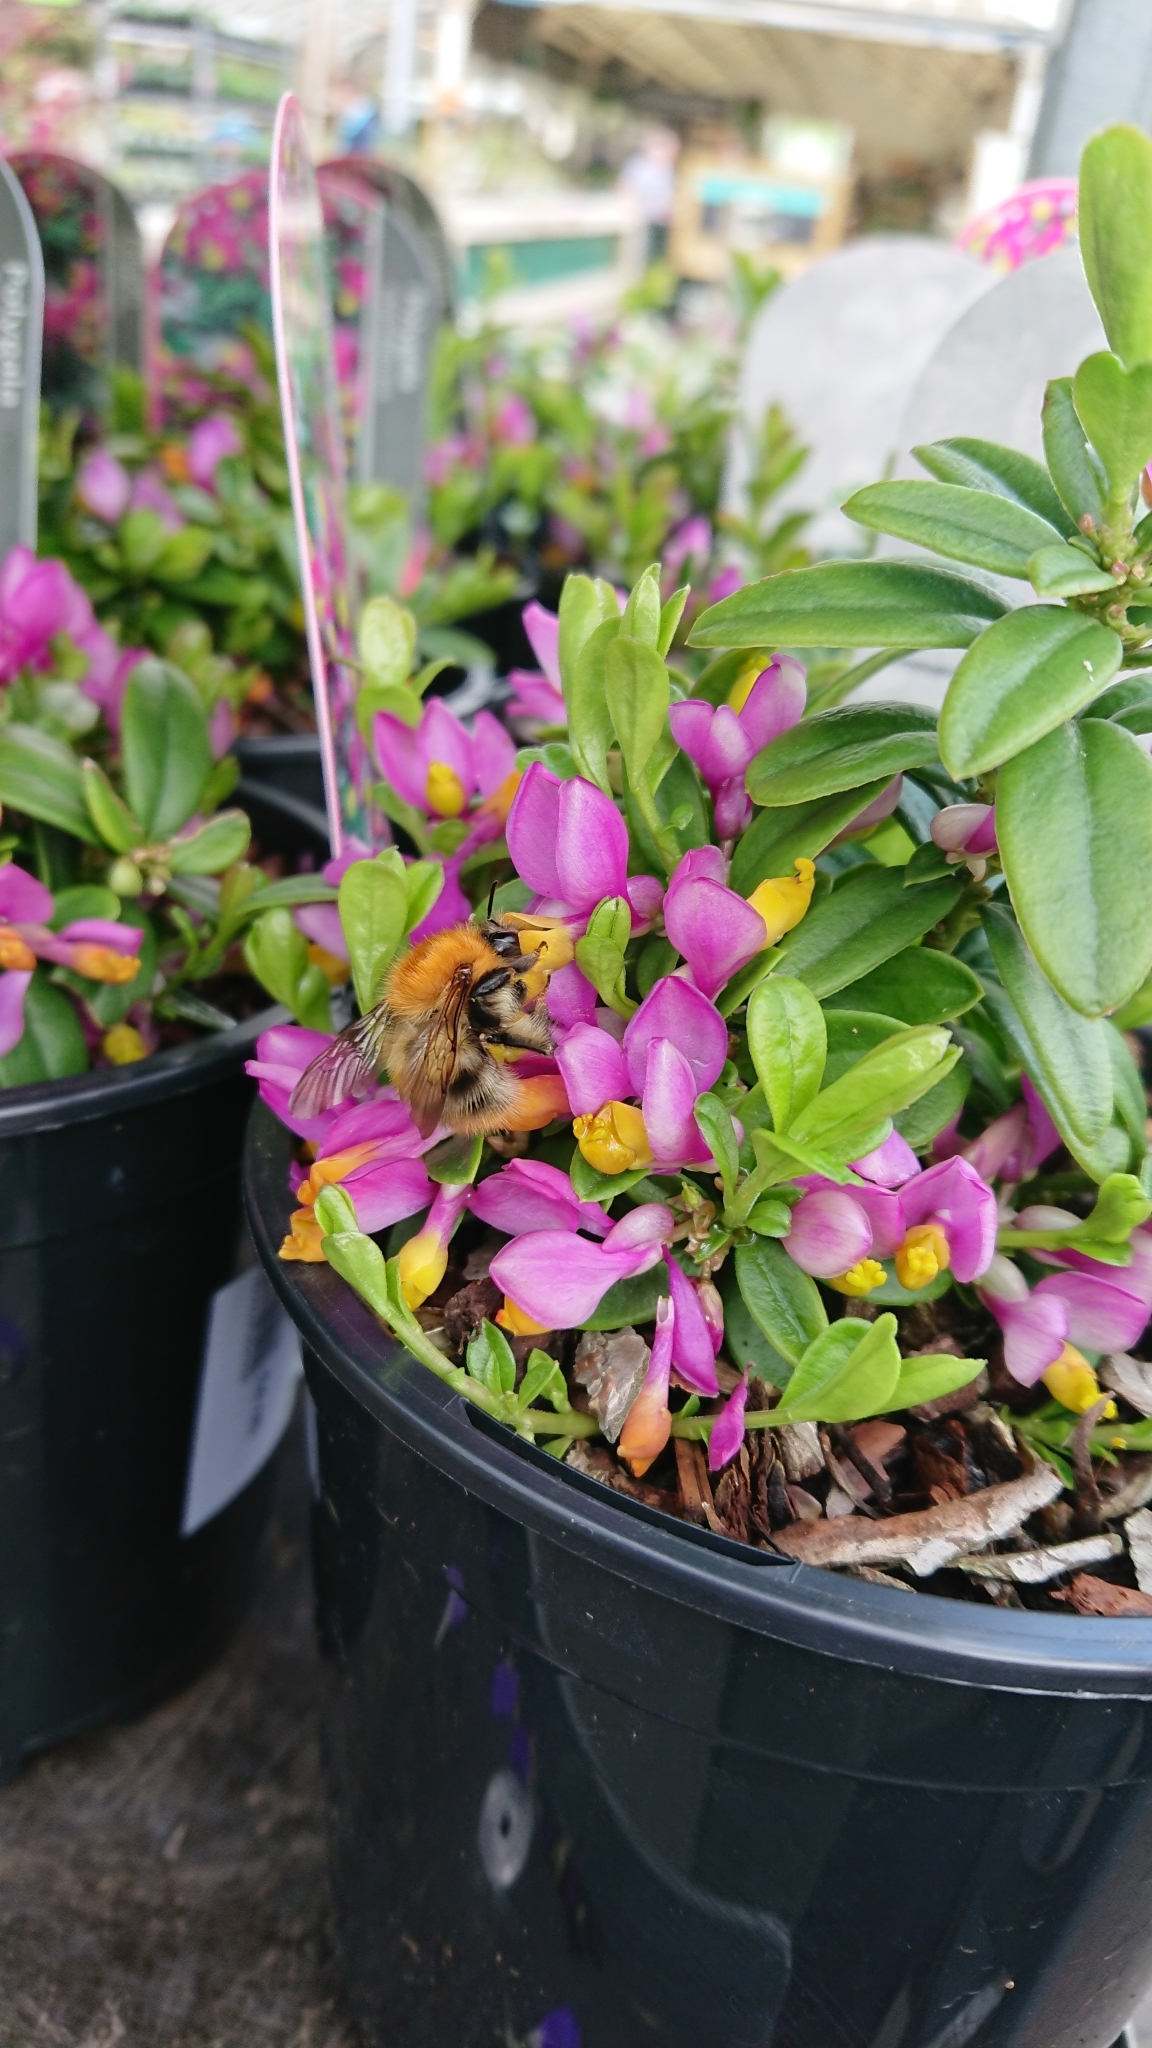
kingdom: Animalia
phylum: Arthropoda
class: Insecta
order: Hymenoptera
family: Apidae
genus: Bombus
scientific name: Bombus pascuorum
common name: Common carder bee
